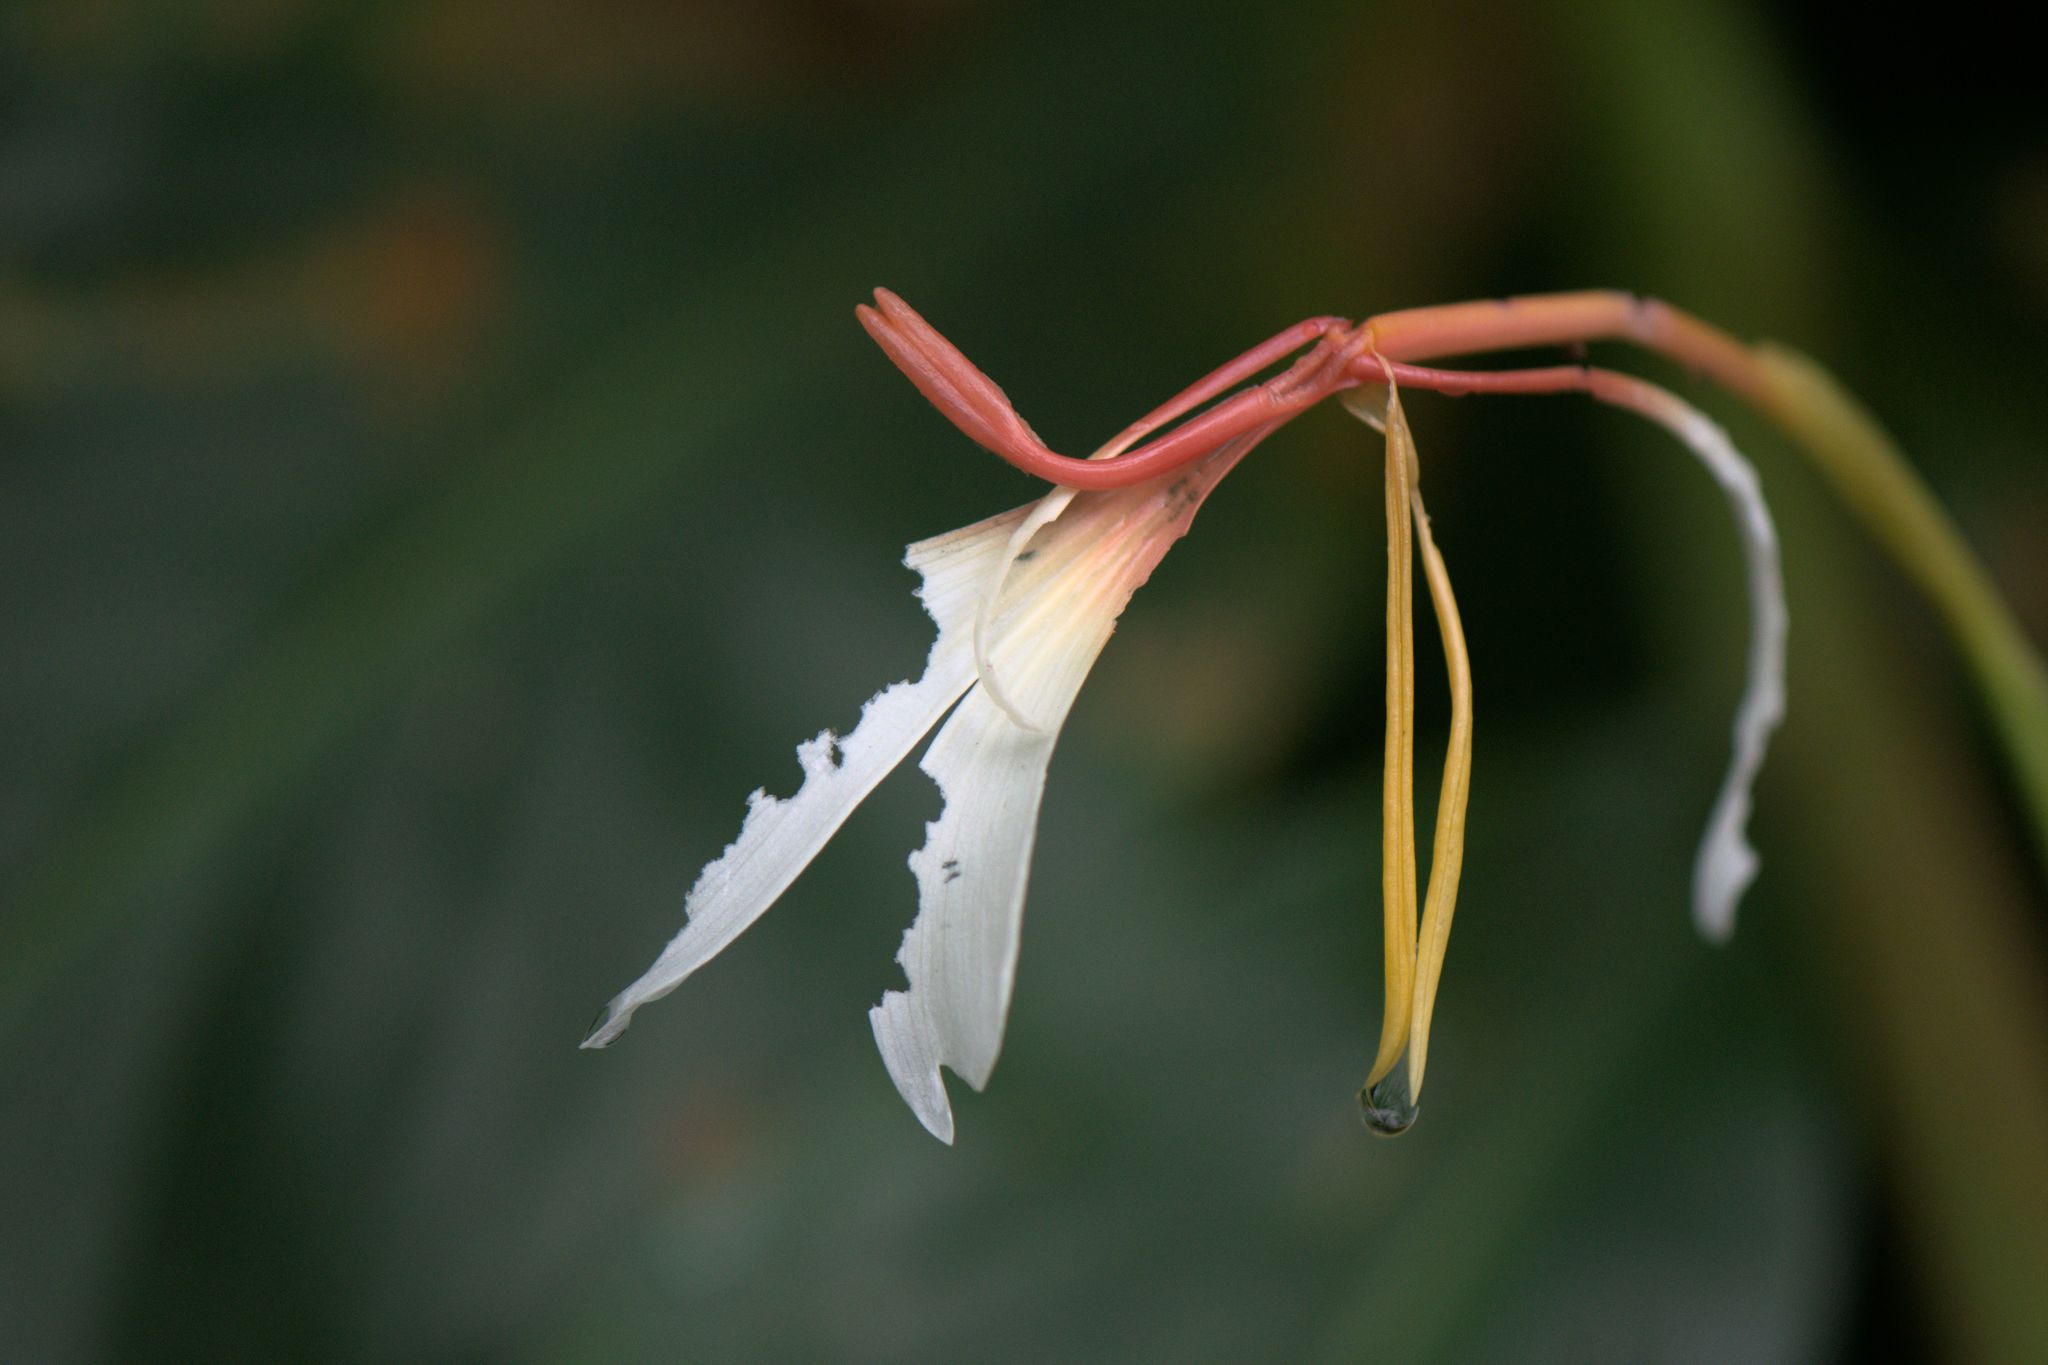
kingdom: Plantae
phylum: Tracheophyta
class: Liliopsida
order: Zingiberales
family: Zingiberaceae
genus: Hedychium
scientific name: Hedychium spicatum
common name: Spiked ginger-lily
